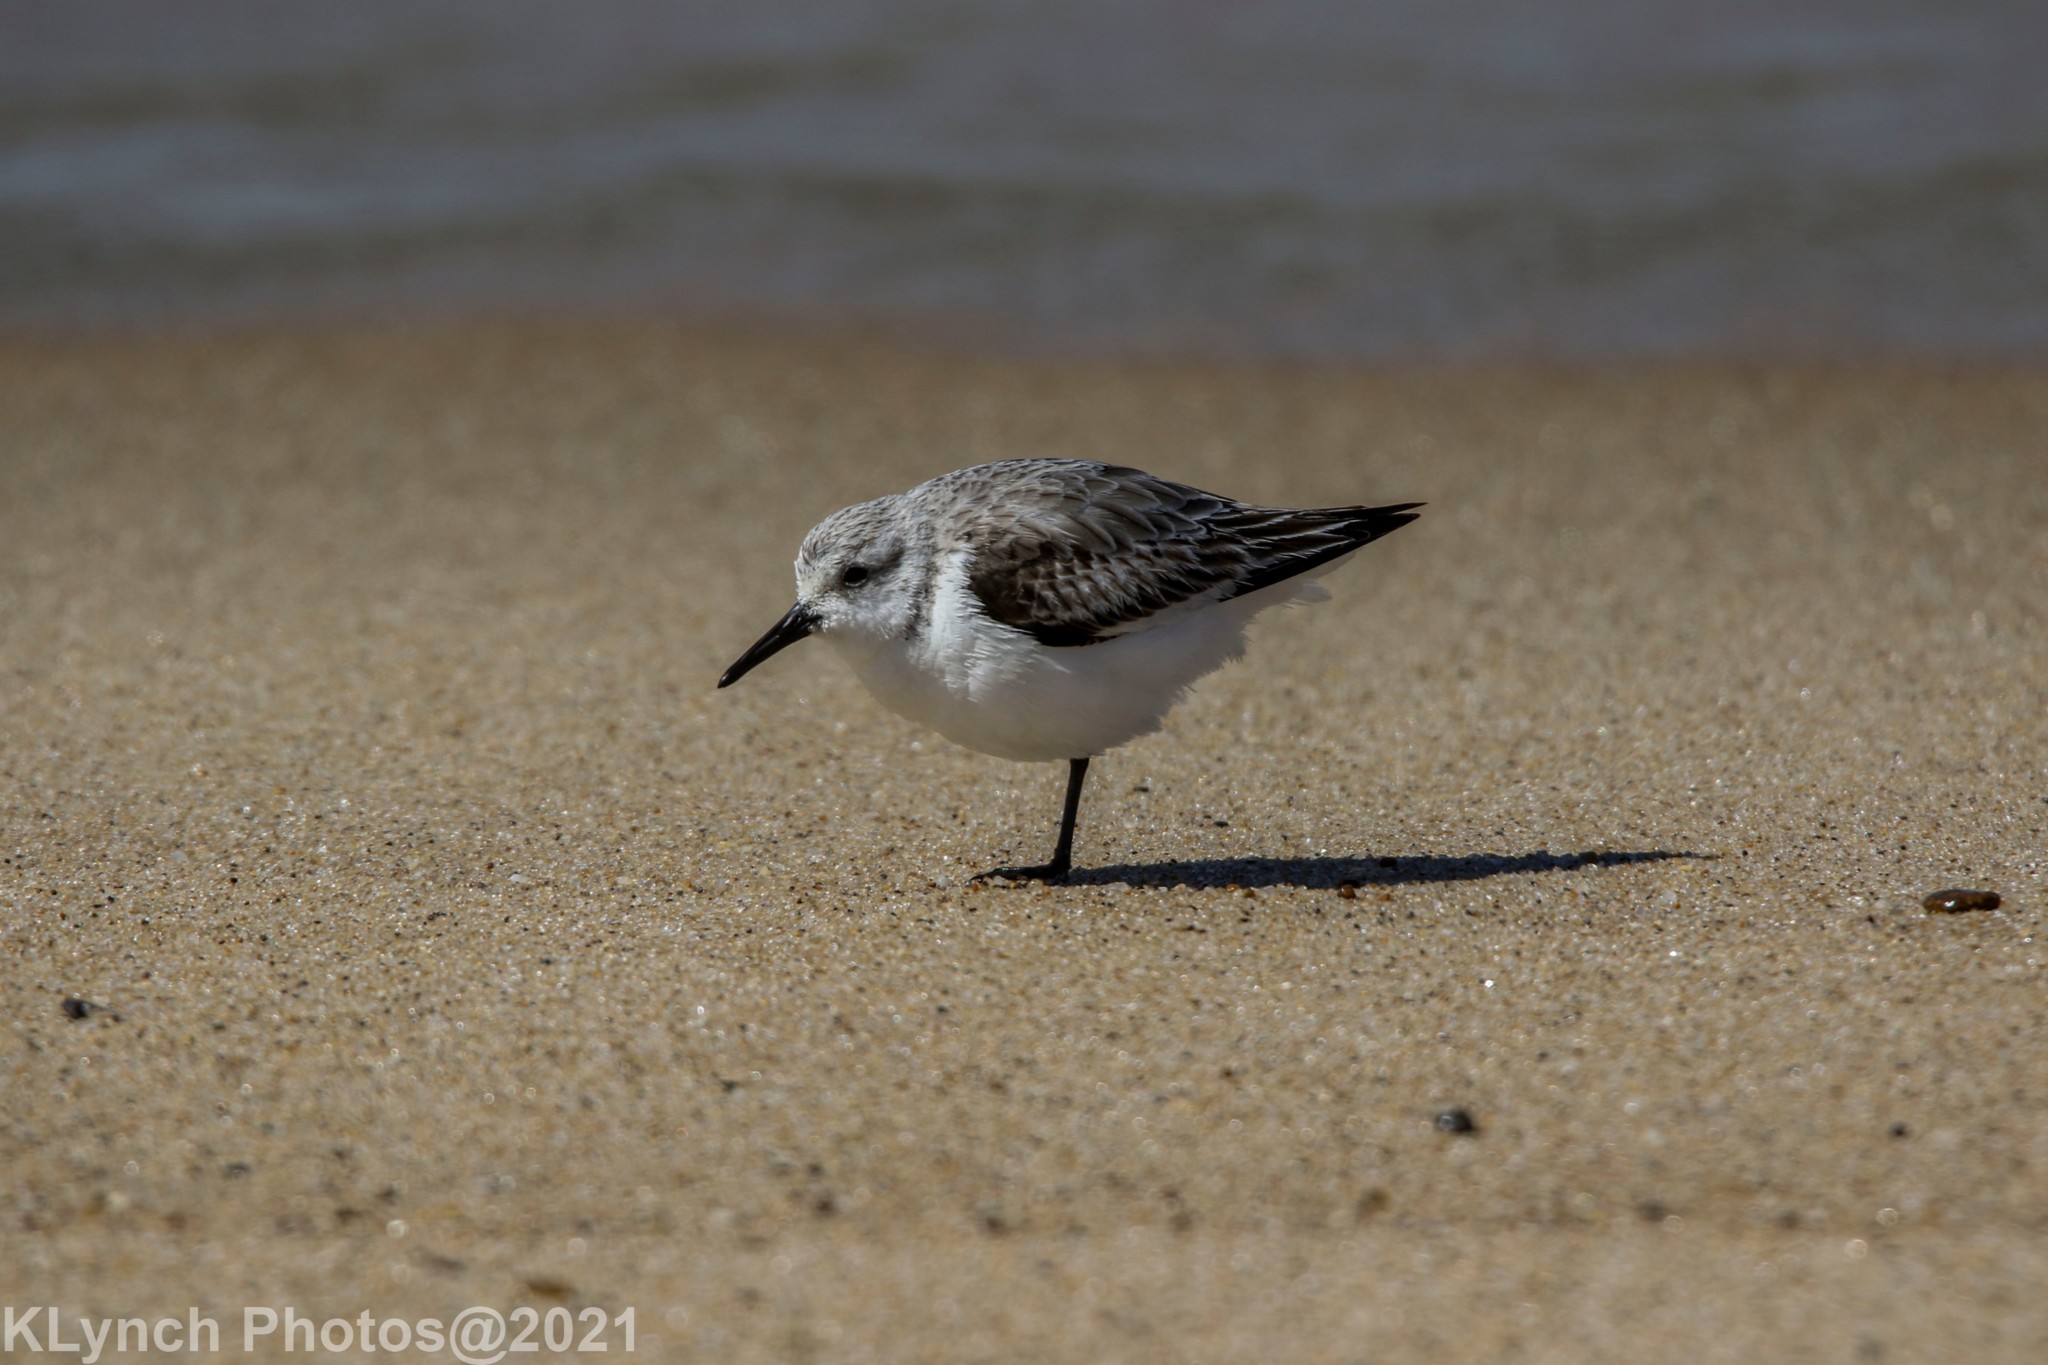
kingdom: Animalia
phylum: Chordata
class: Aves
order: Charadriiformes
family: Scolopacidae
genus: Calidris
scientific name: Calidris alba
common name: Sanderling
